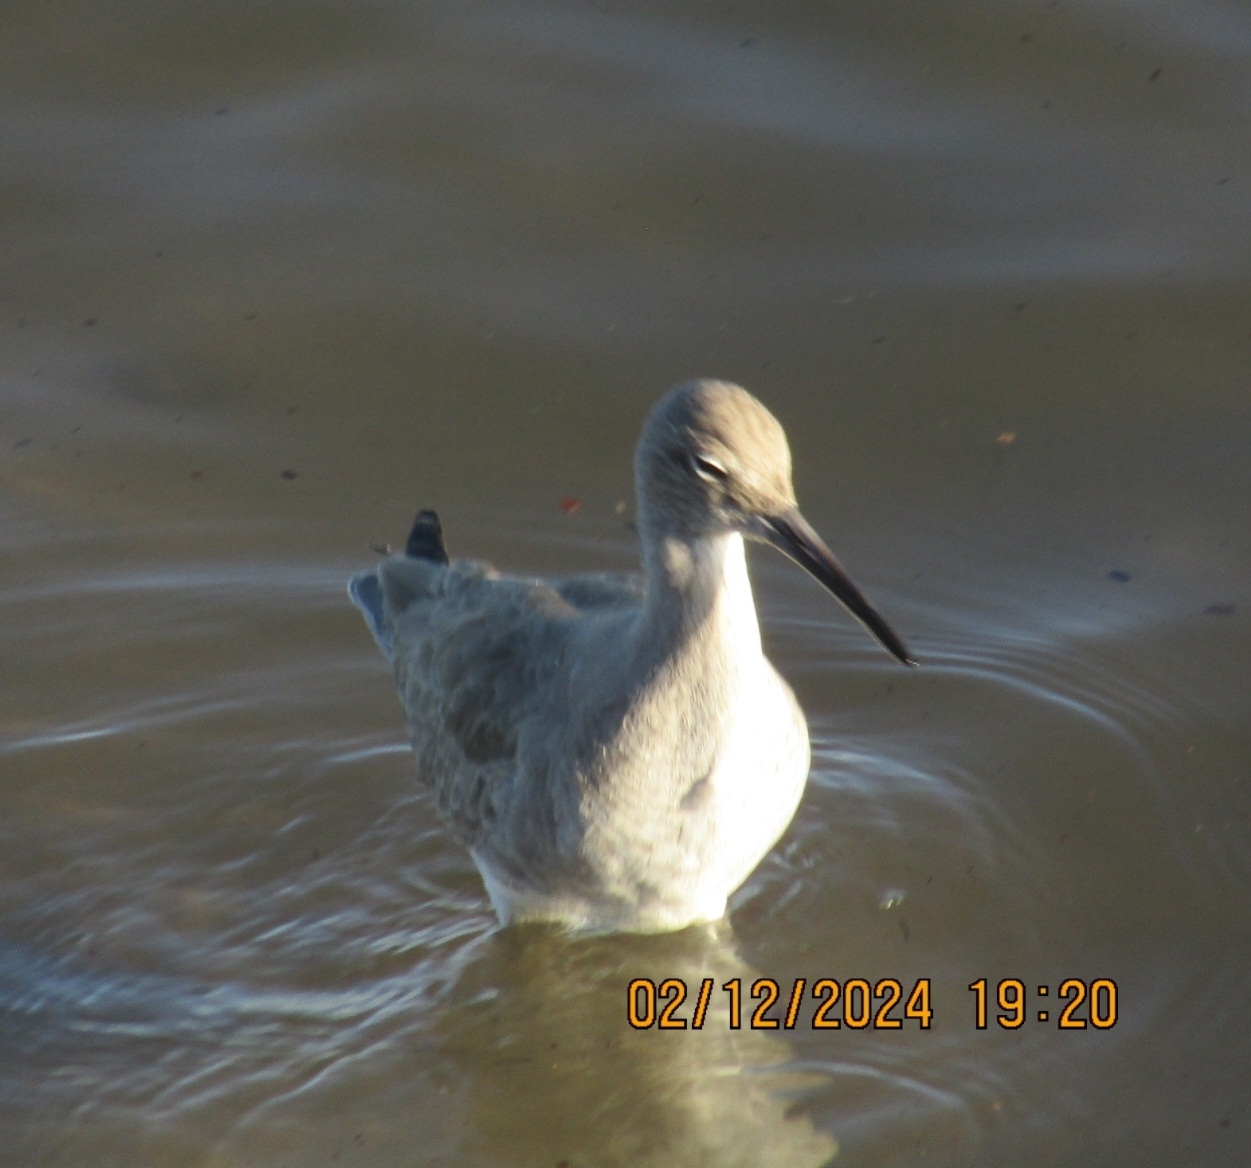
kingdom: Animalia
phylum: Chordata
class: Aves
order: Charadriiformes
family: Scolopacidae
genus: Tringa
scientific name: Tringa semipalmata
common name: Willet
